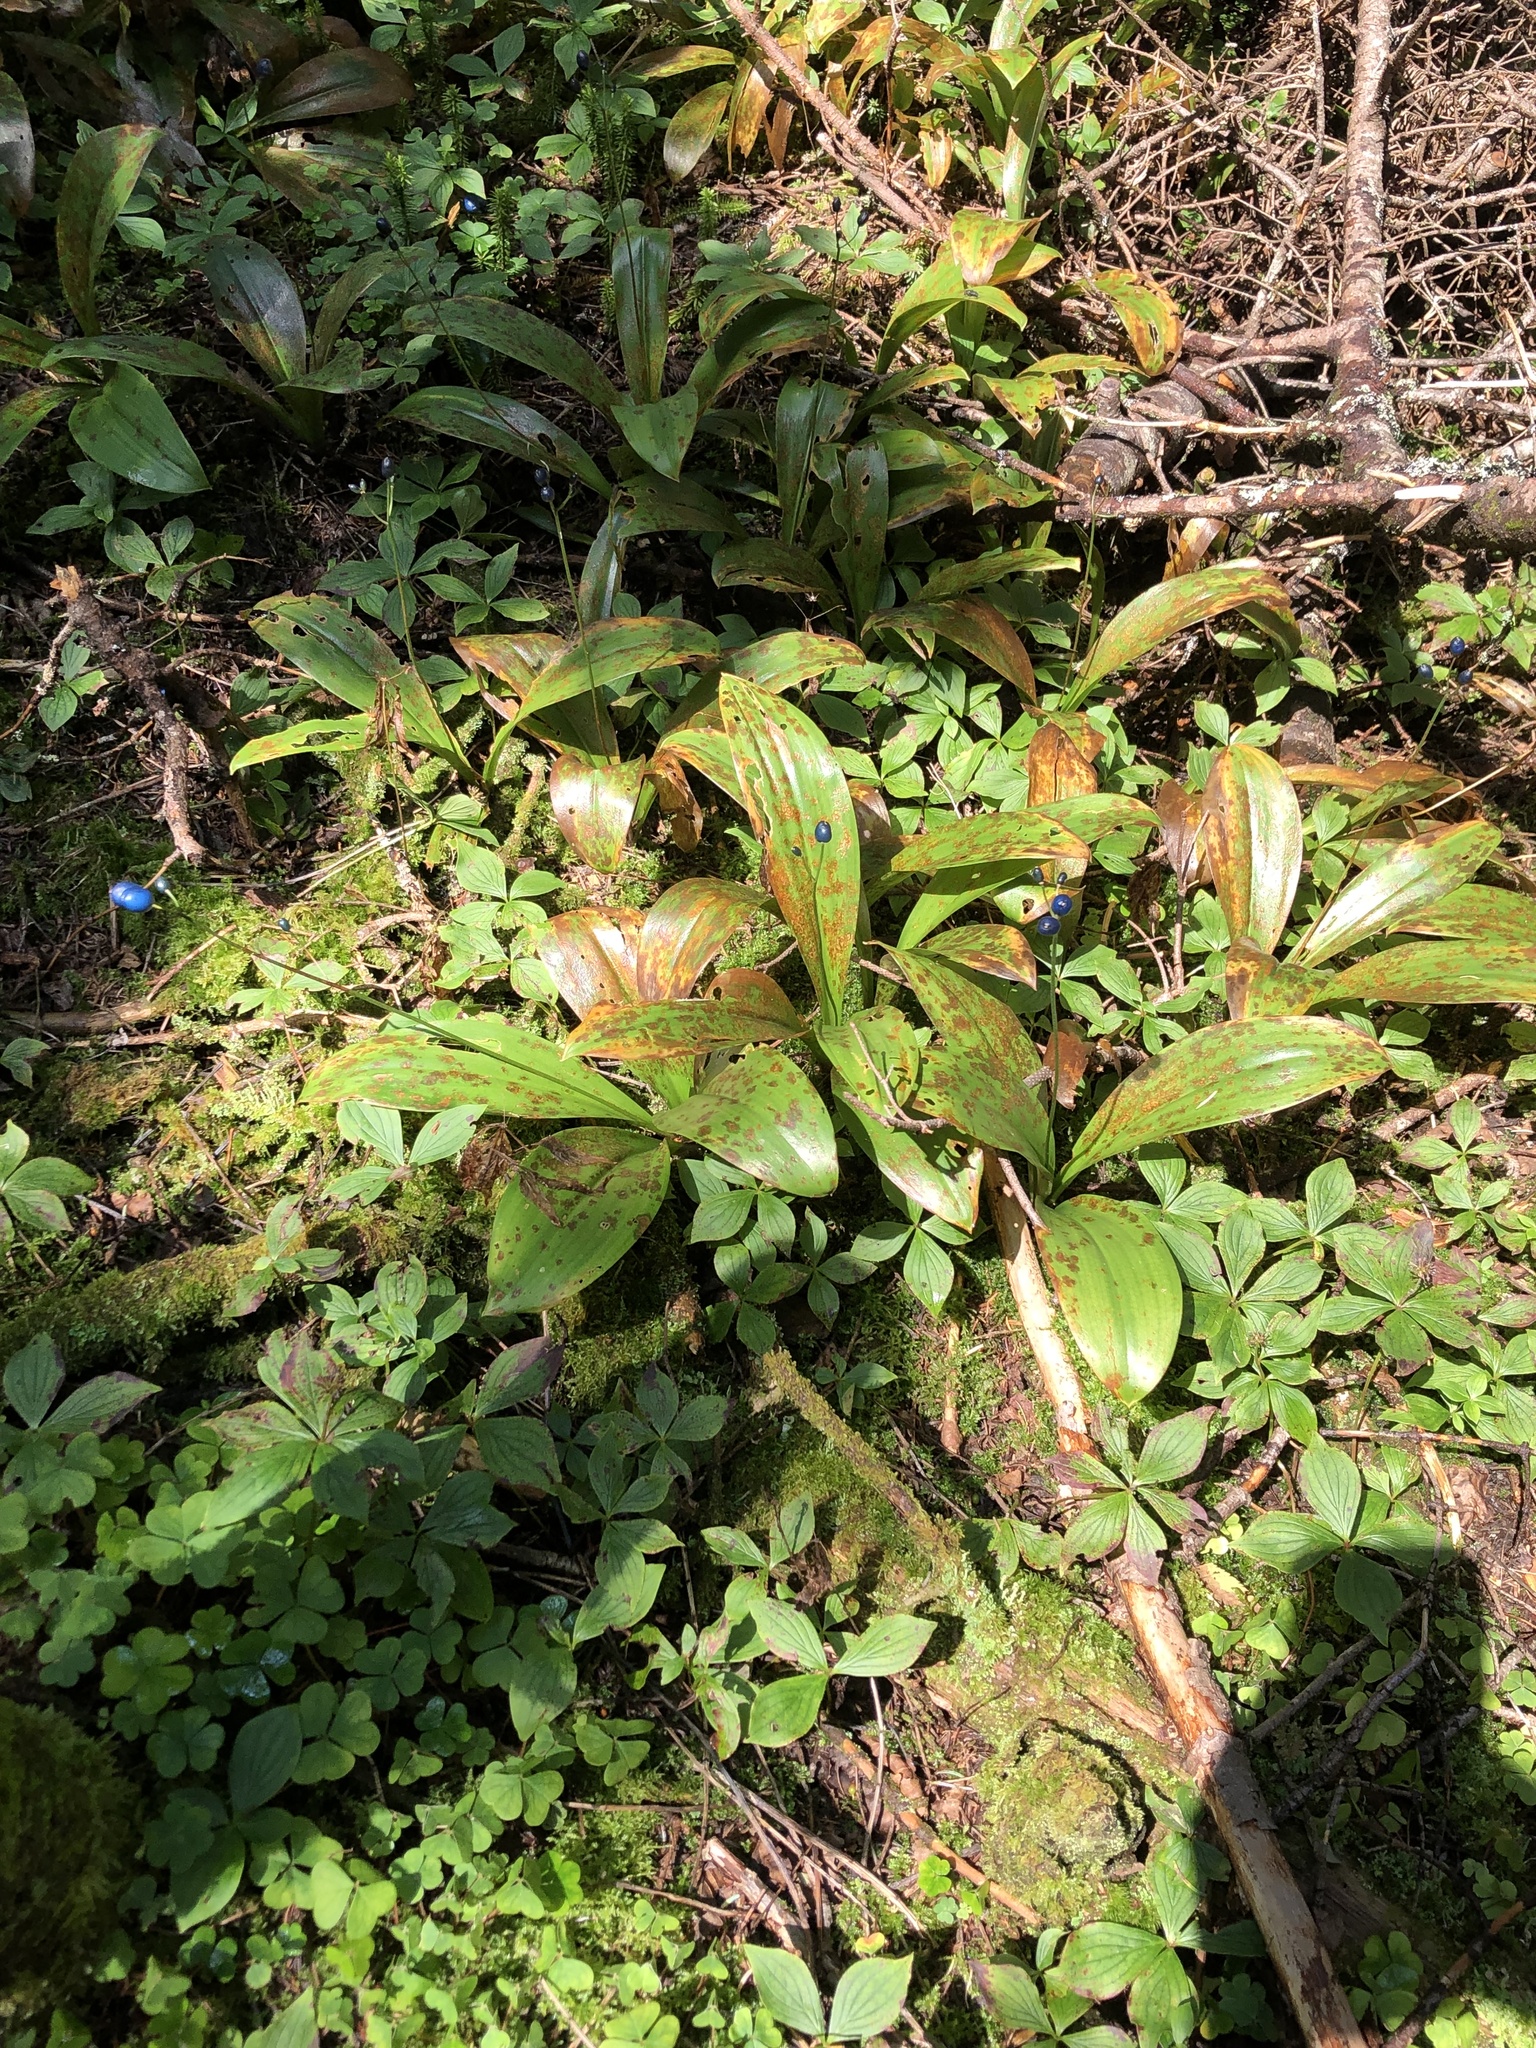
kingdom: Plantae
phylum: Tracheophyta
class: Liliopsida
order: Liliales
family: Liliaceae
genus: Clintonia
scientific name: Clintonia borealis
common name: Yellow clintonia
